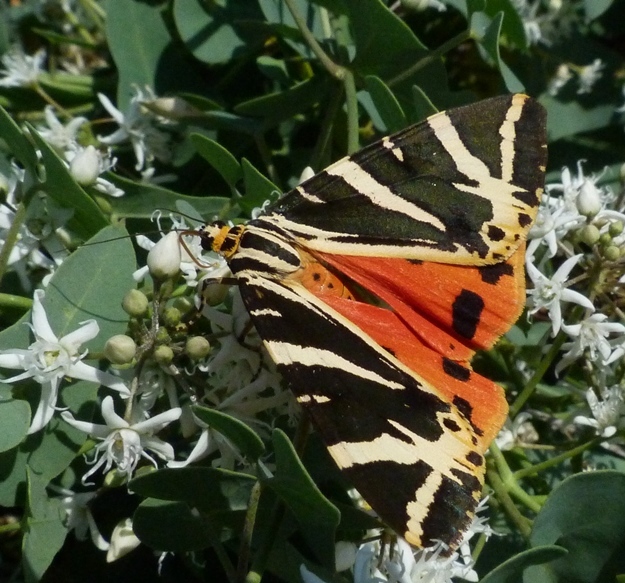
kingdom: Animalia
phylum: Arthropoda
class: Insecta
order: Lepidoptera
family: Erebidae
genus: Euplagia
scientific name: Euplagia quadripunctaria
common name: Jersey tiger
